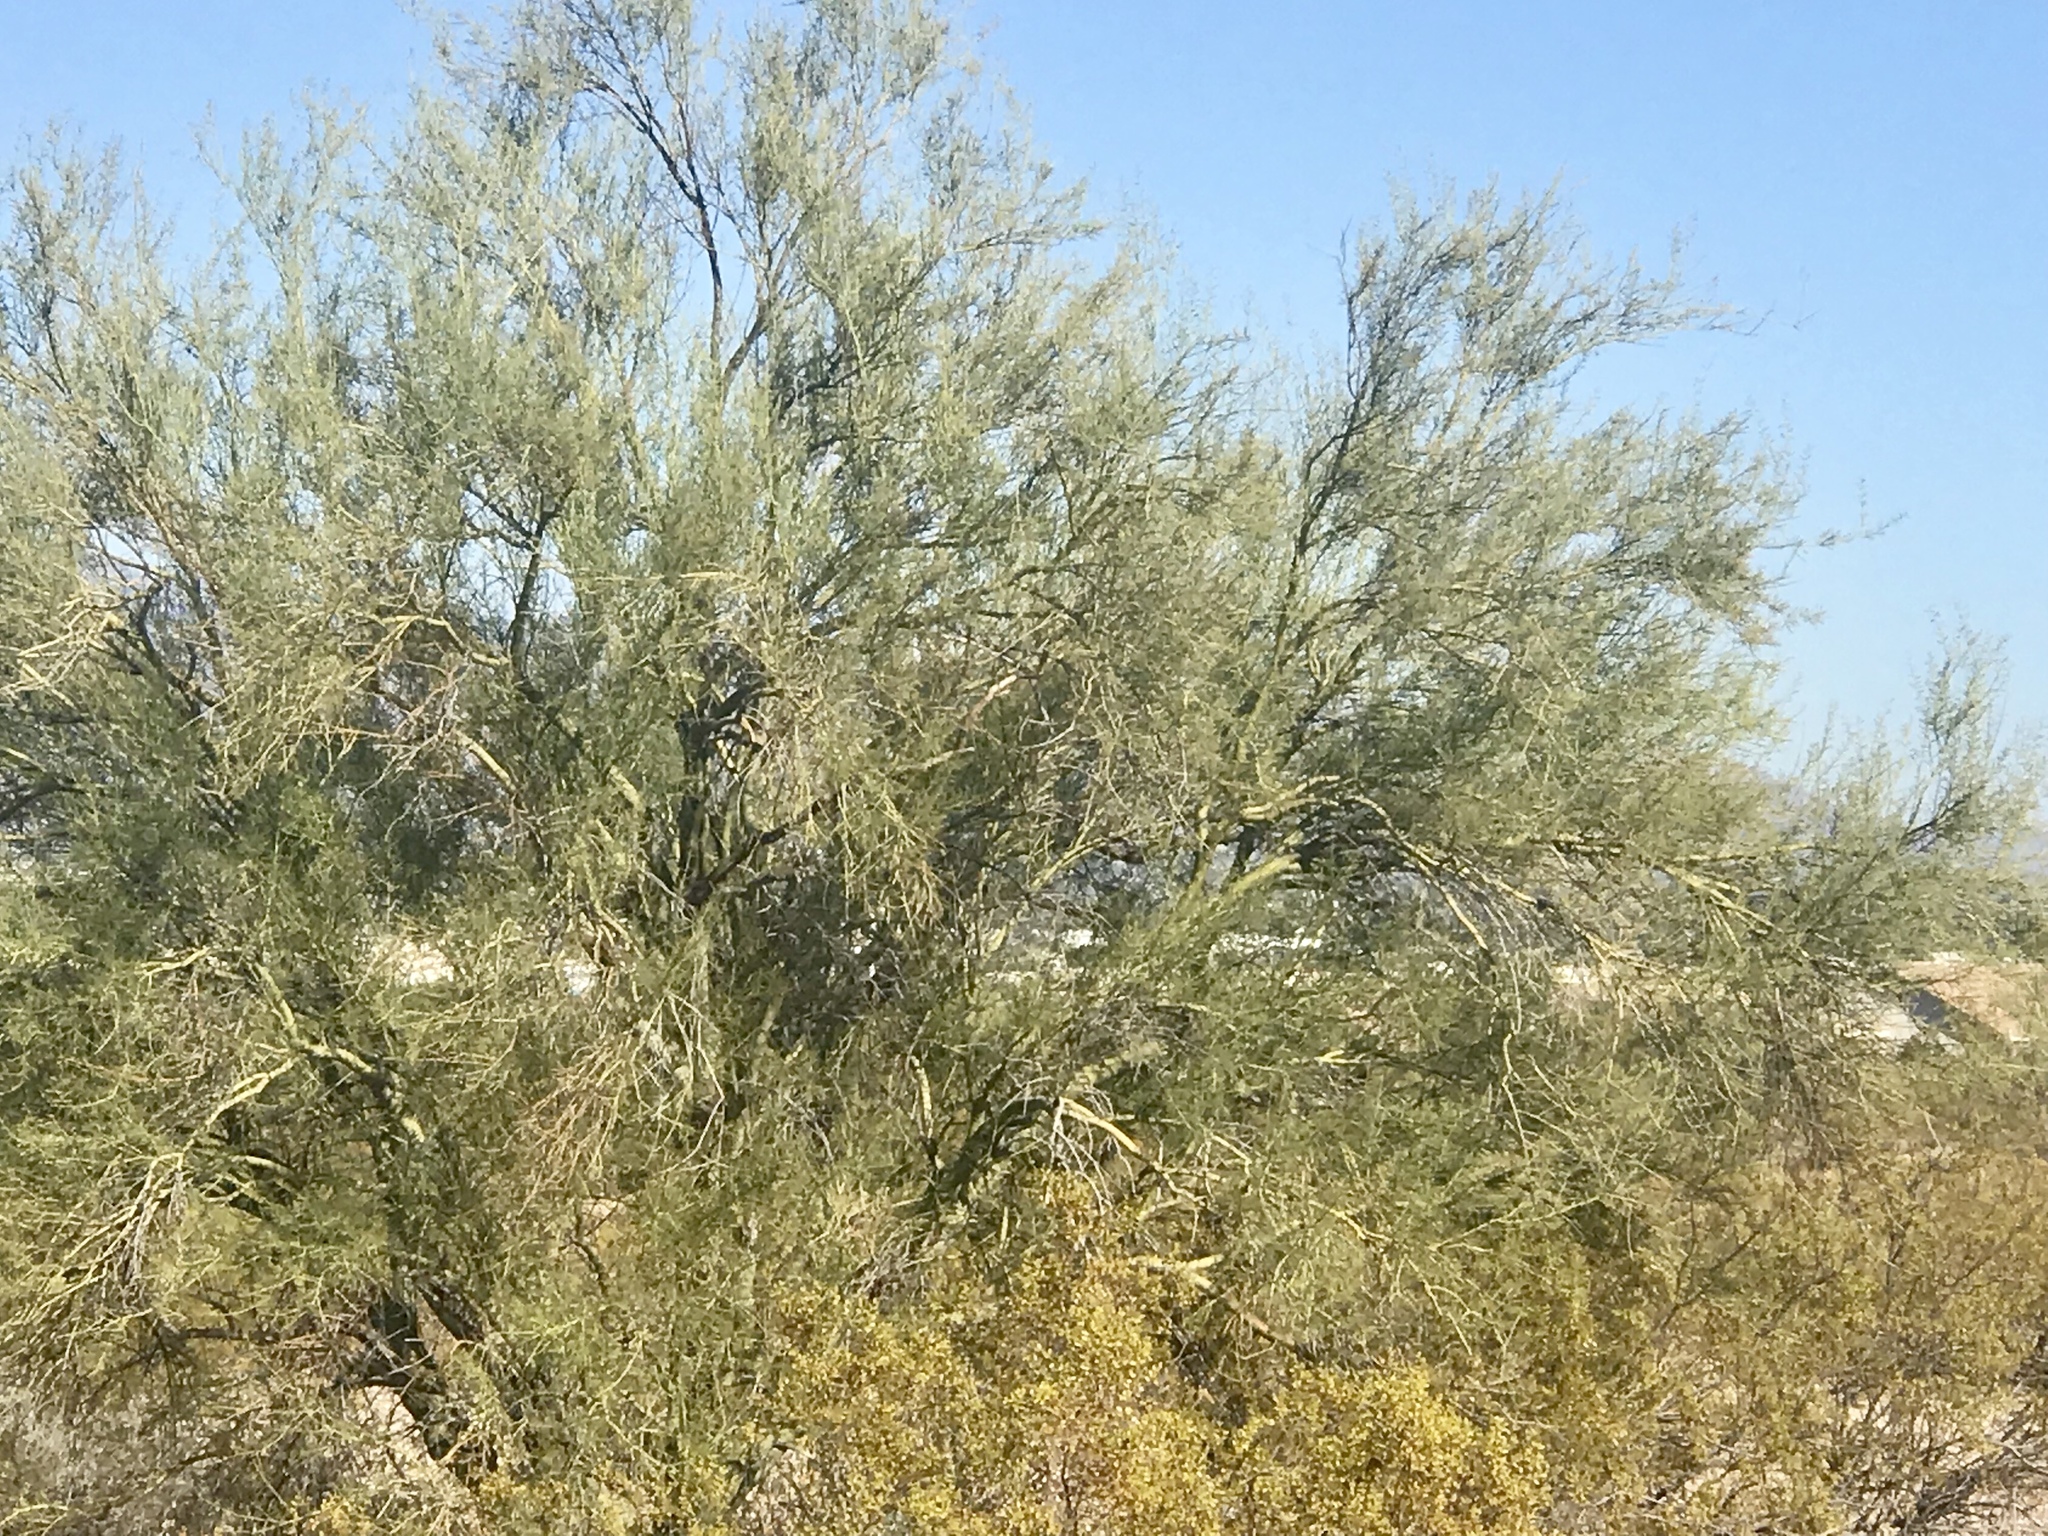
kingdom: Plantae
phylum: Tracheophyta
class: Magnoliopsida
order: Fabales
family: Fabaceae
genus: Parkinsonia
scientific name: Parkinsonia florida
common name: Blue paloverde
